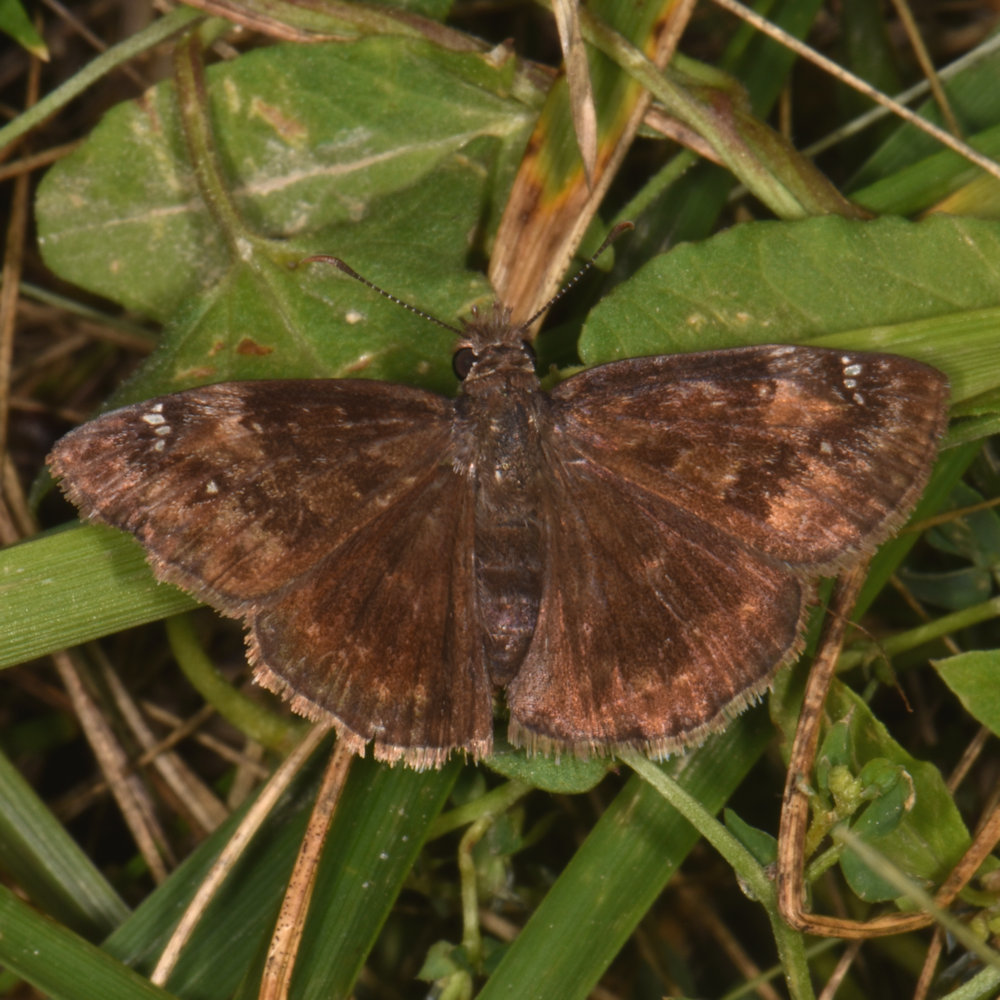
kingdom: Animalia
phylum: Arthropoda
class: Insecta
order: Lepidoptera
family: Hesperiidae
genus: Erynnis
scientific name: Erynnis baptisiae
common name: Wild indigo duskywing
